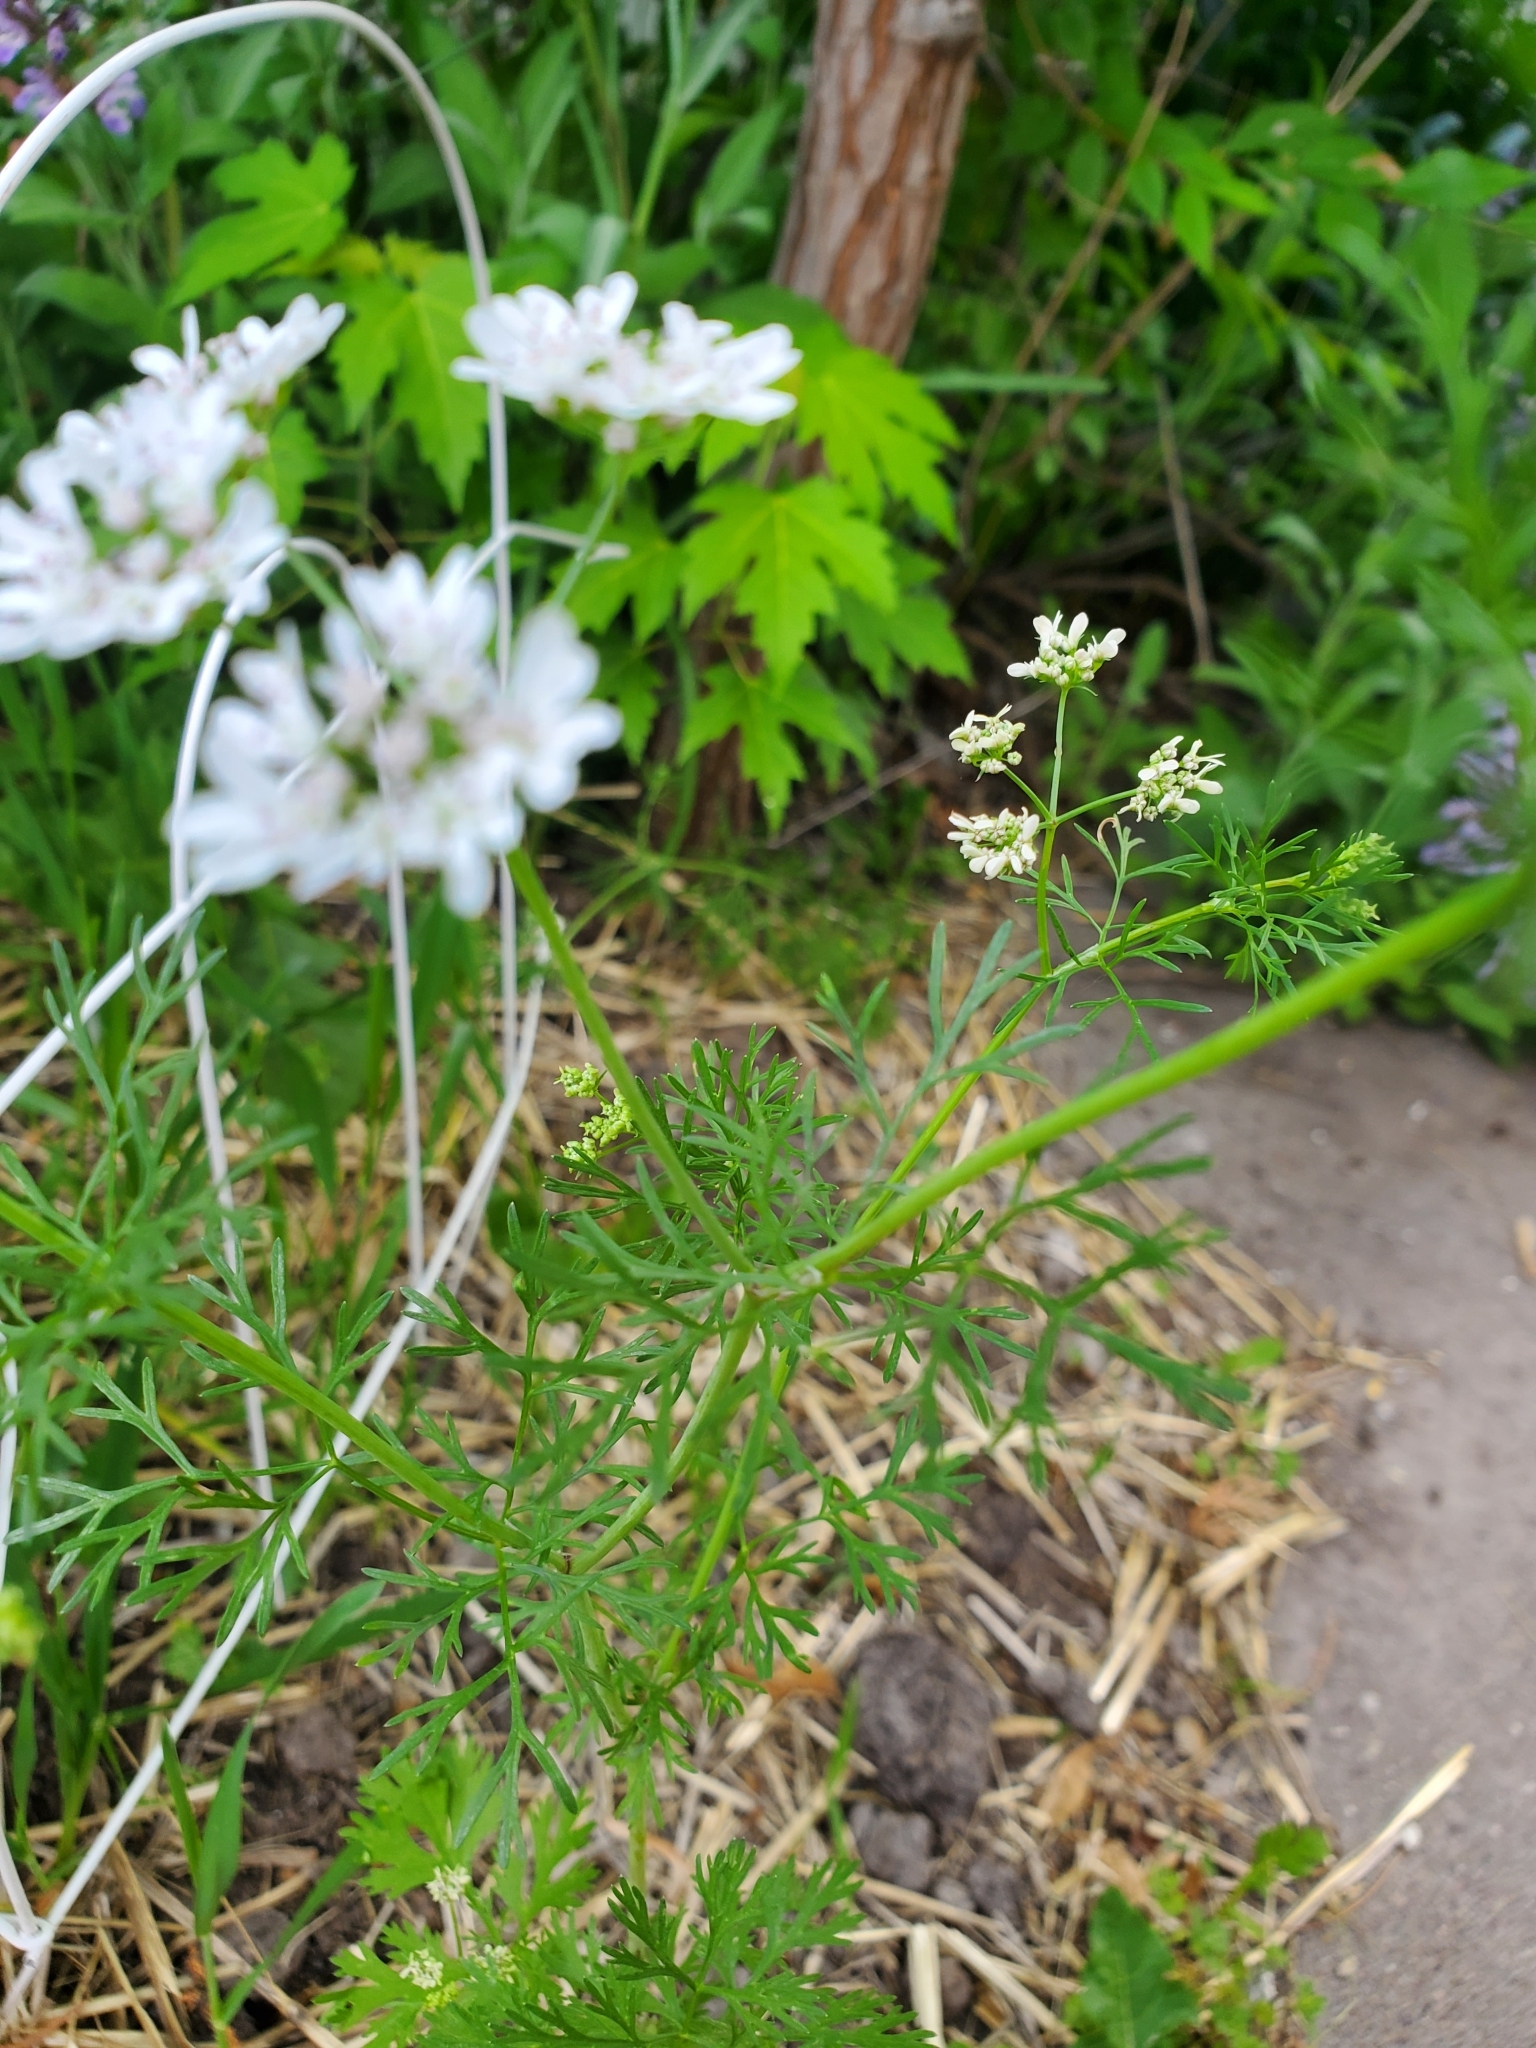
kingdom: Plantae
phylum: Tracheophyta
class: Magnoliopsida
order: Apiales
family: Apiaceae
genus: Coriandrum
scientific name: Coriandrum sativum
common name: Coriander
